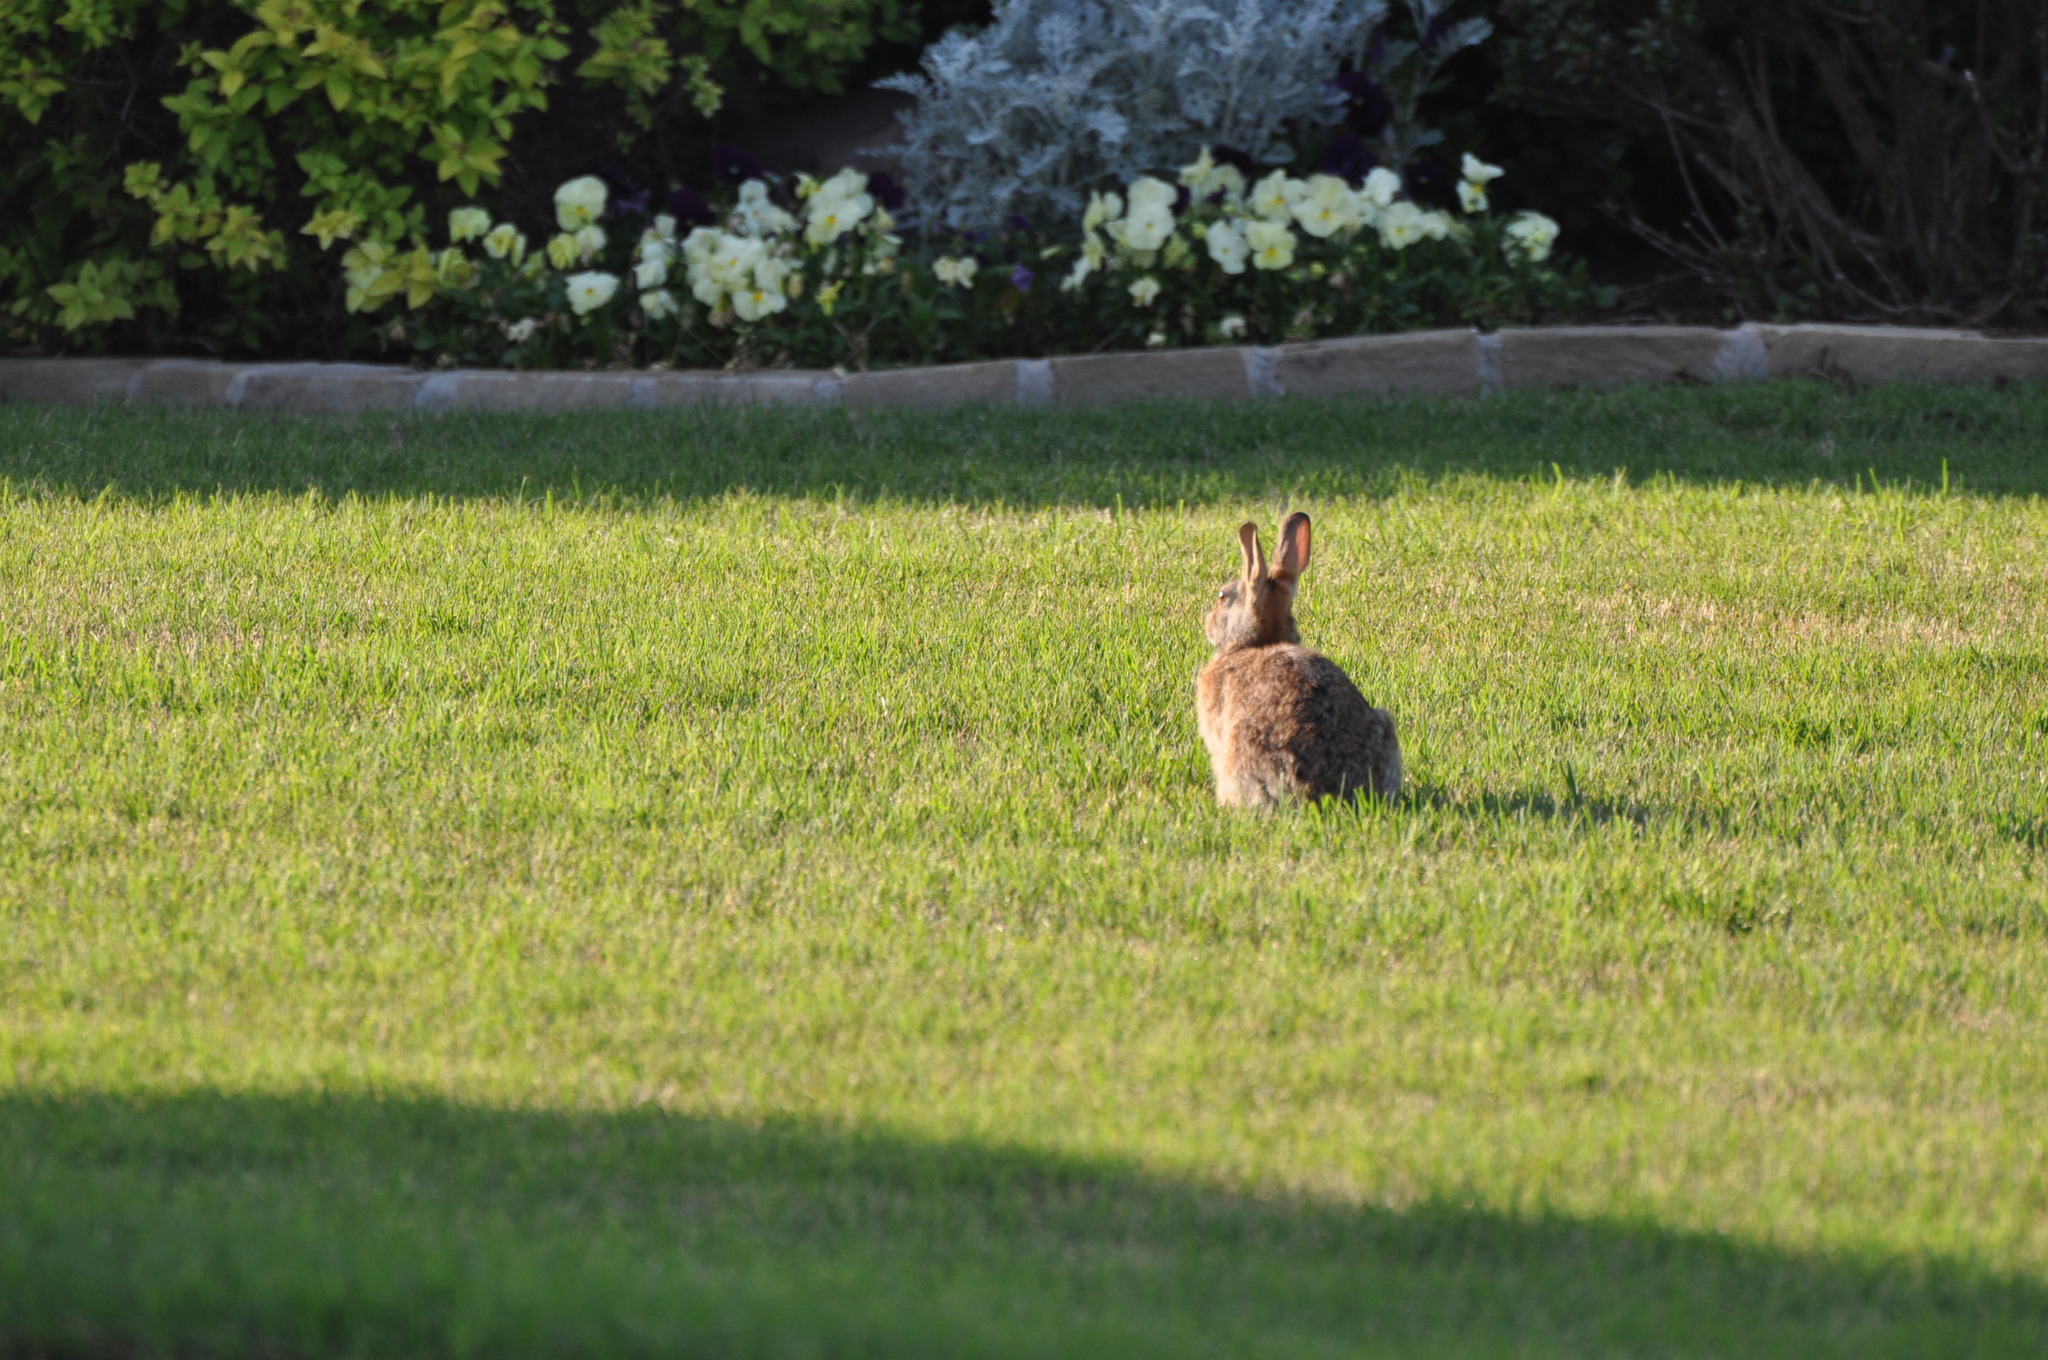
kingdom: Animalia
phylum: Chordata
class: Mammalia
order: Lagomorpha
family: Leporidae
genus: Sylvilagus
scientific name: Sylvilagus floridanus
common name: Eastern cottontail
